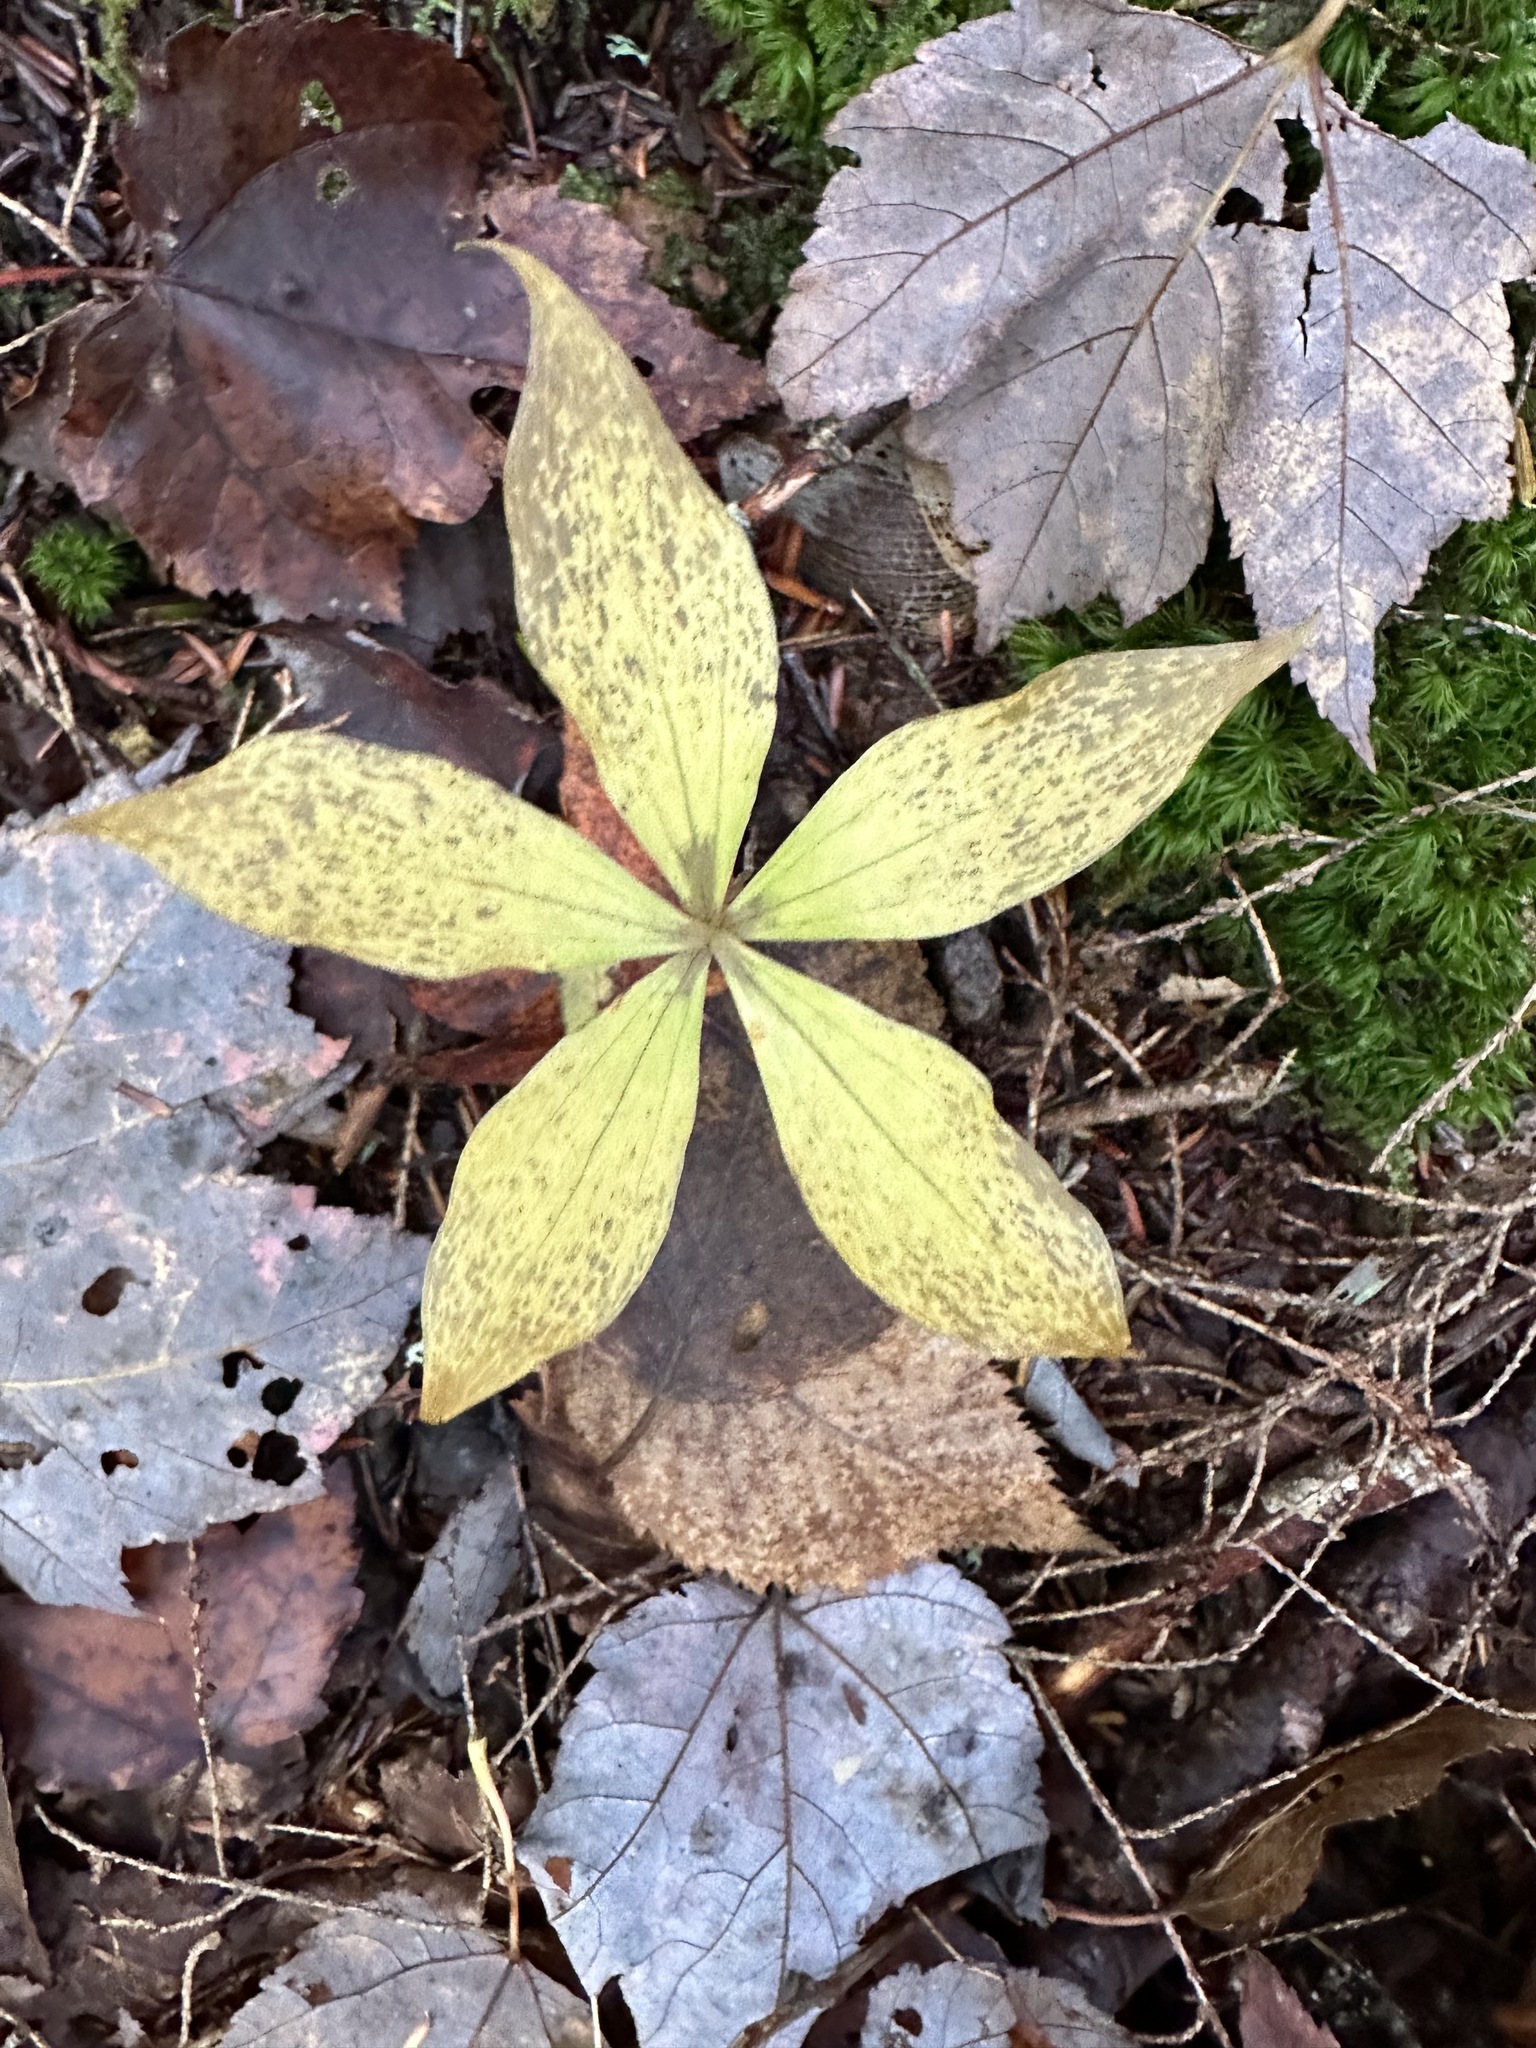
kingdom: Plantae
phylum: Tracheophyta
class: Liliopsida
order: Liliales
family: Liliaceae
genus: Medeola
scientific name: Medeola virginiana
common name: Indian cucumber-root
